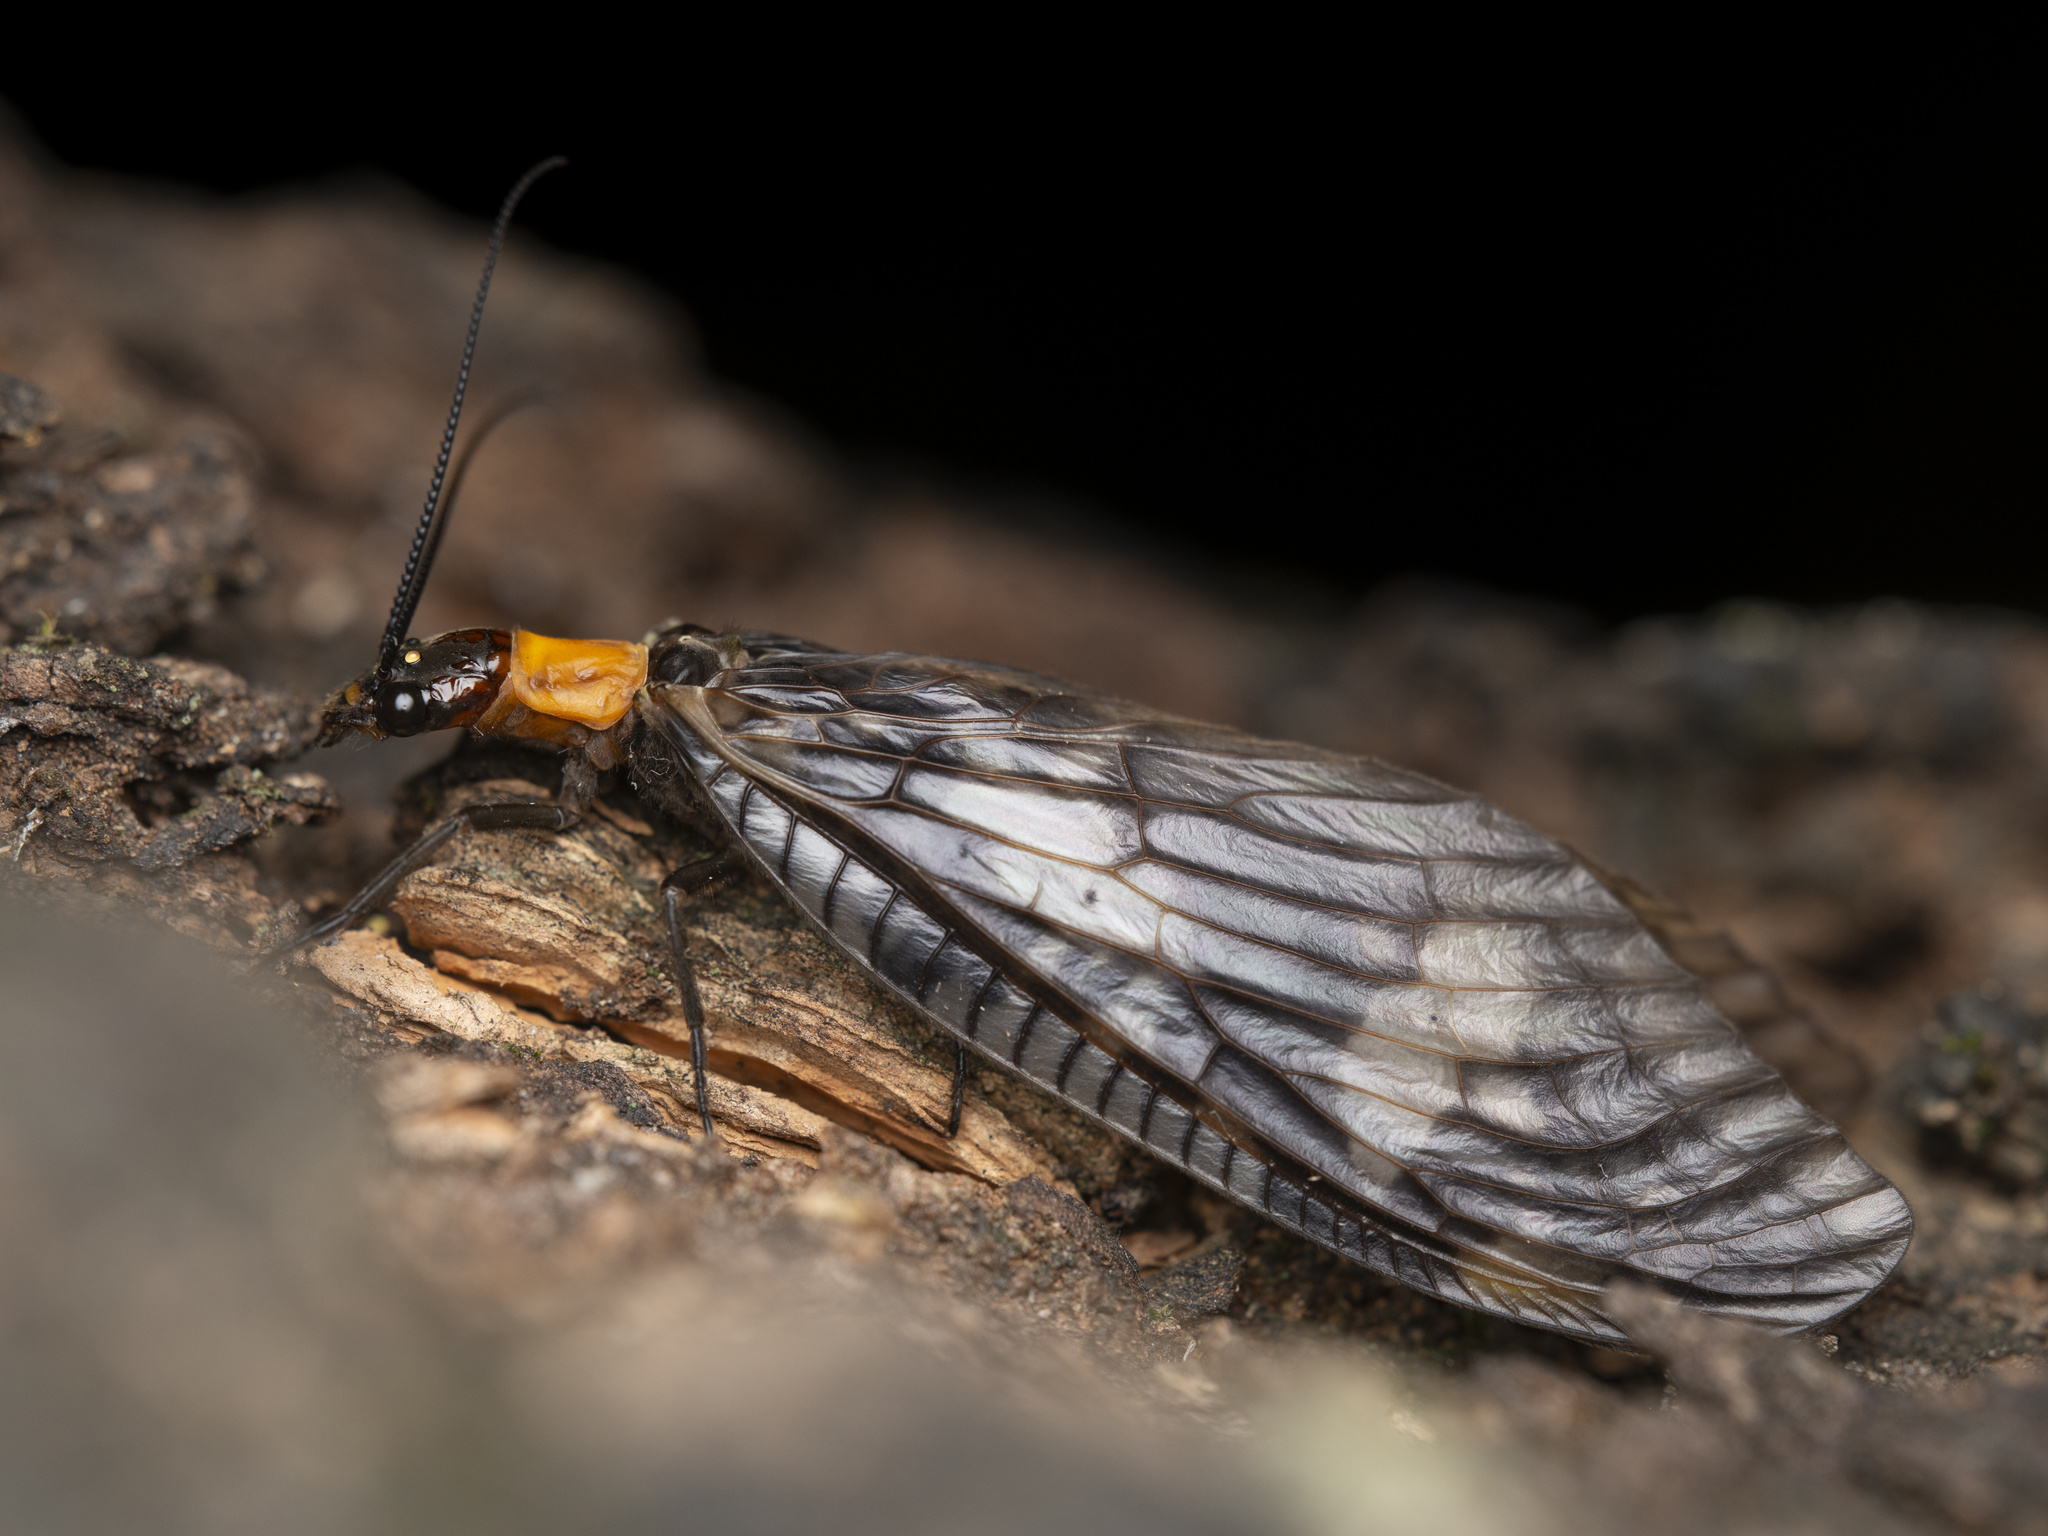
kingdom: Animalia
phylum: Arthropoda
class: Insecta
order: Megaloptera
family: Corydalidae
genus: Neochauliodes
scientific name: Neochauliodes koreanus
